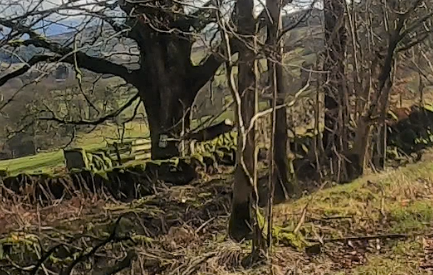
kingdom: Animalia
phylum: Chordata
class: Mammalia
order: Artiodactyla
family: Cervidae
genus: Capreolus
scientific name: Capreolus capreolus
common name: Western roe deer
